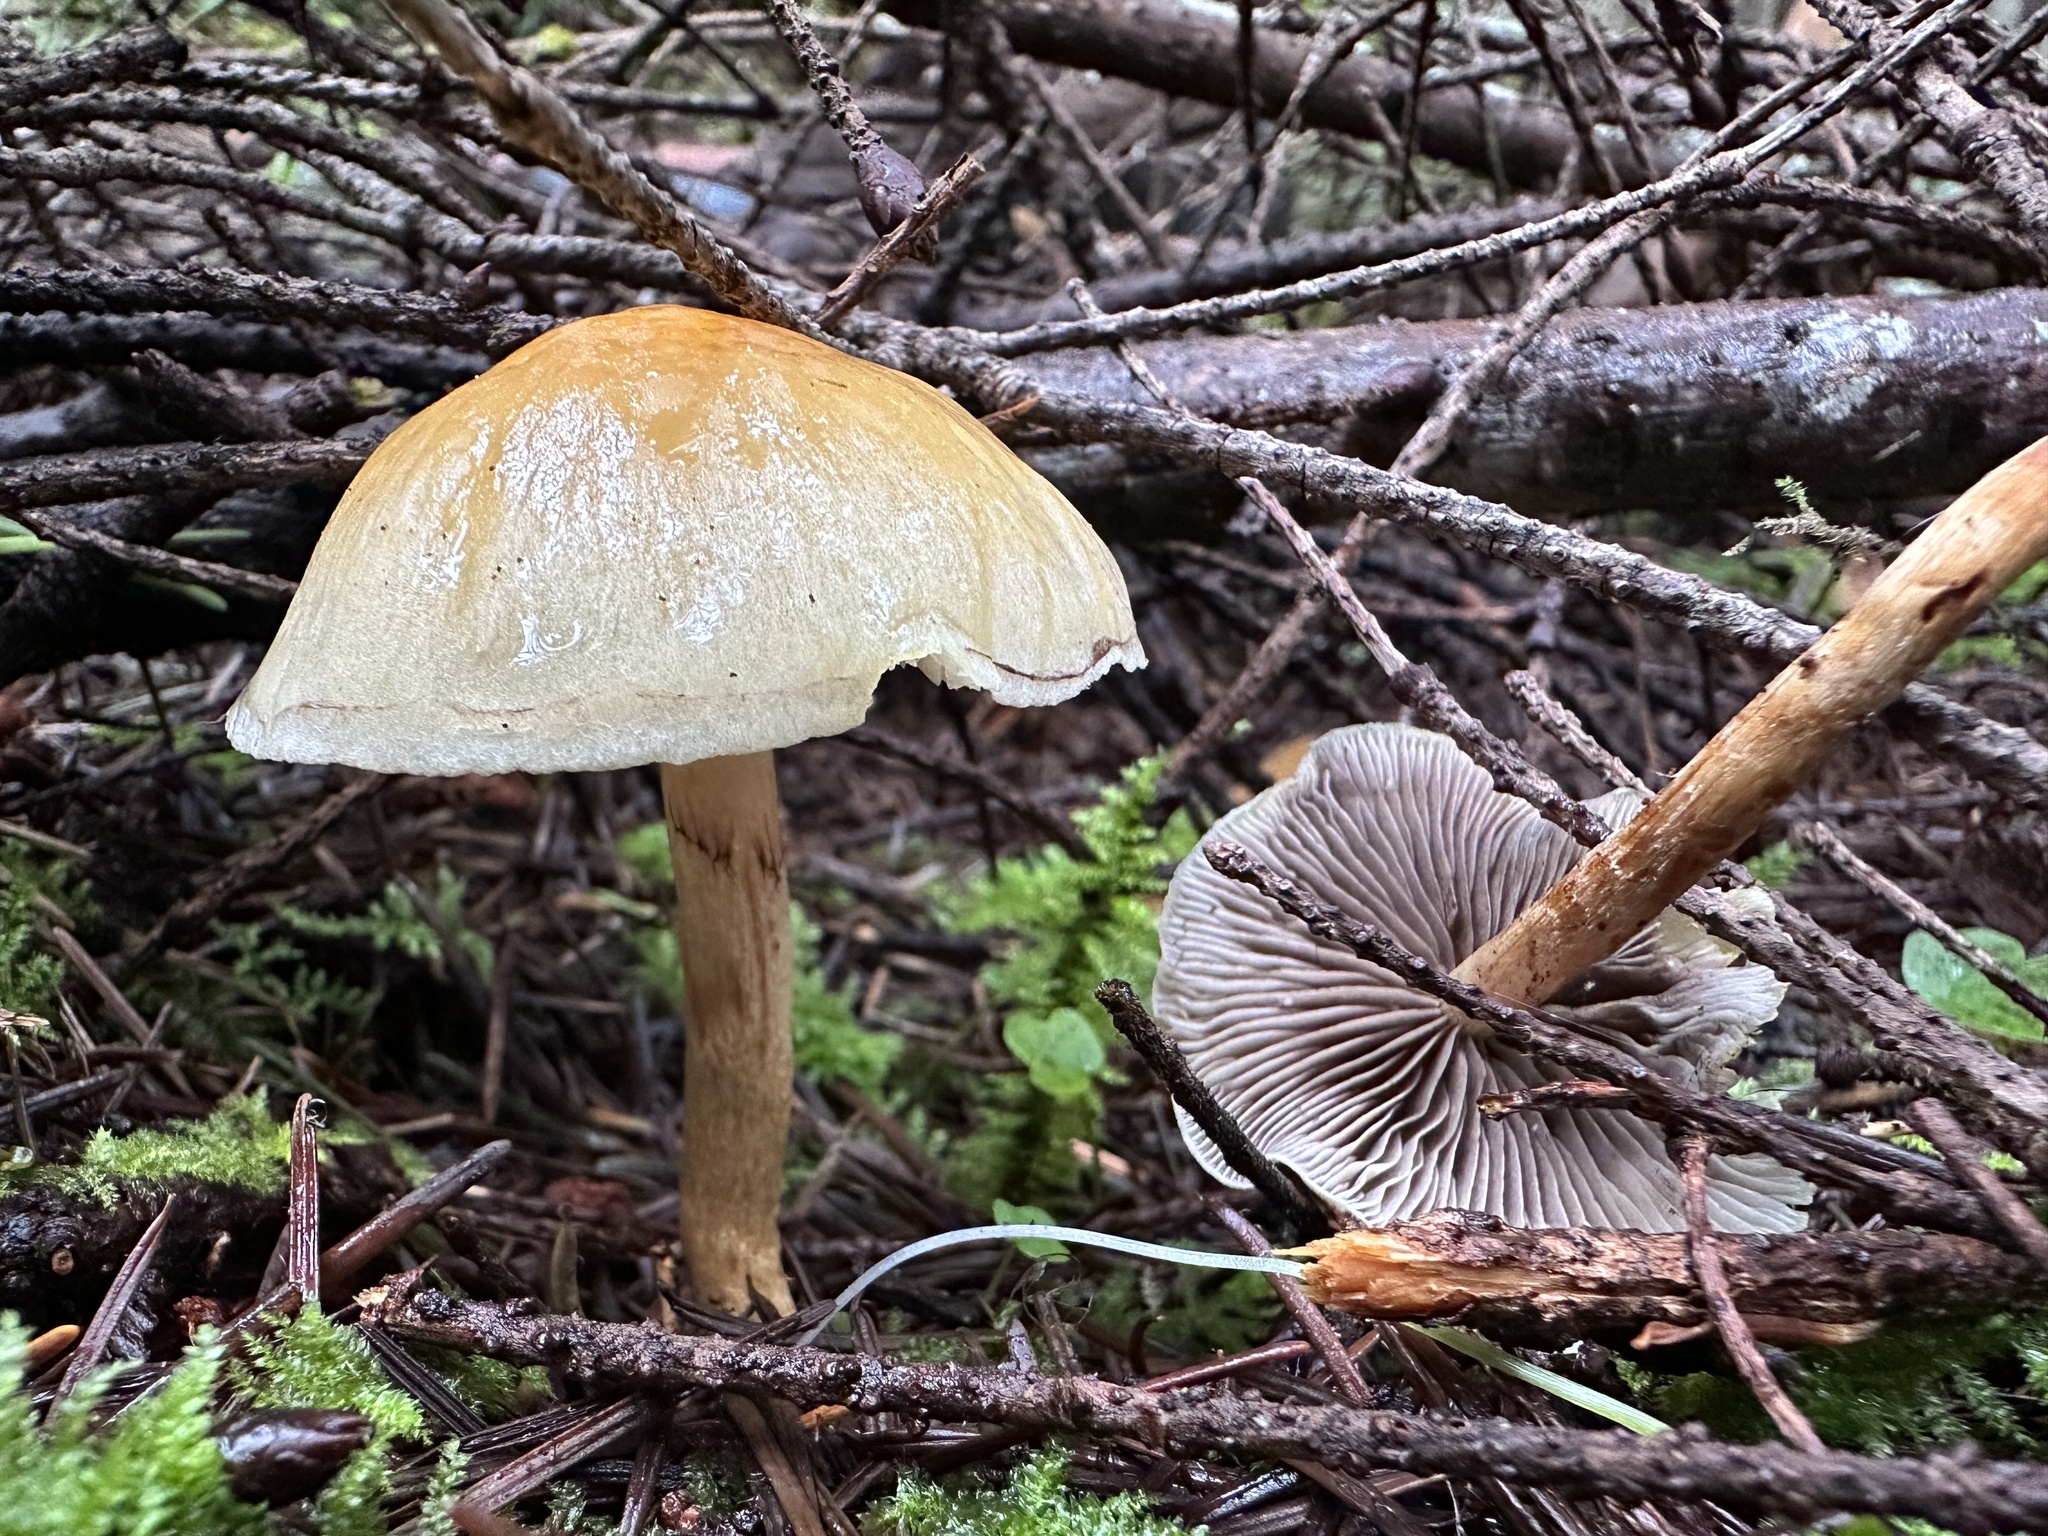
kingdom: Fungi
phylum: Basidiomycota
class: Agaricomycetes
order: Agaricales
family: Strophariaceae
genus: Hypholoma
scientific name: Hypholoma capnoides
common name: Conifer tuft
